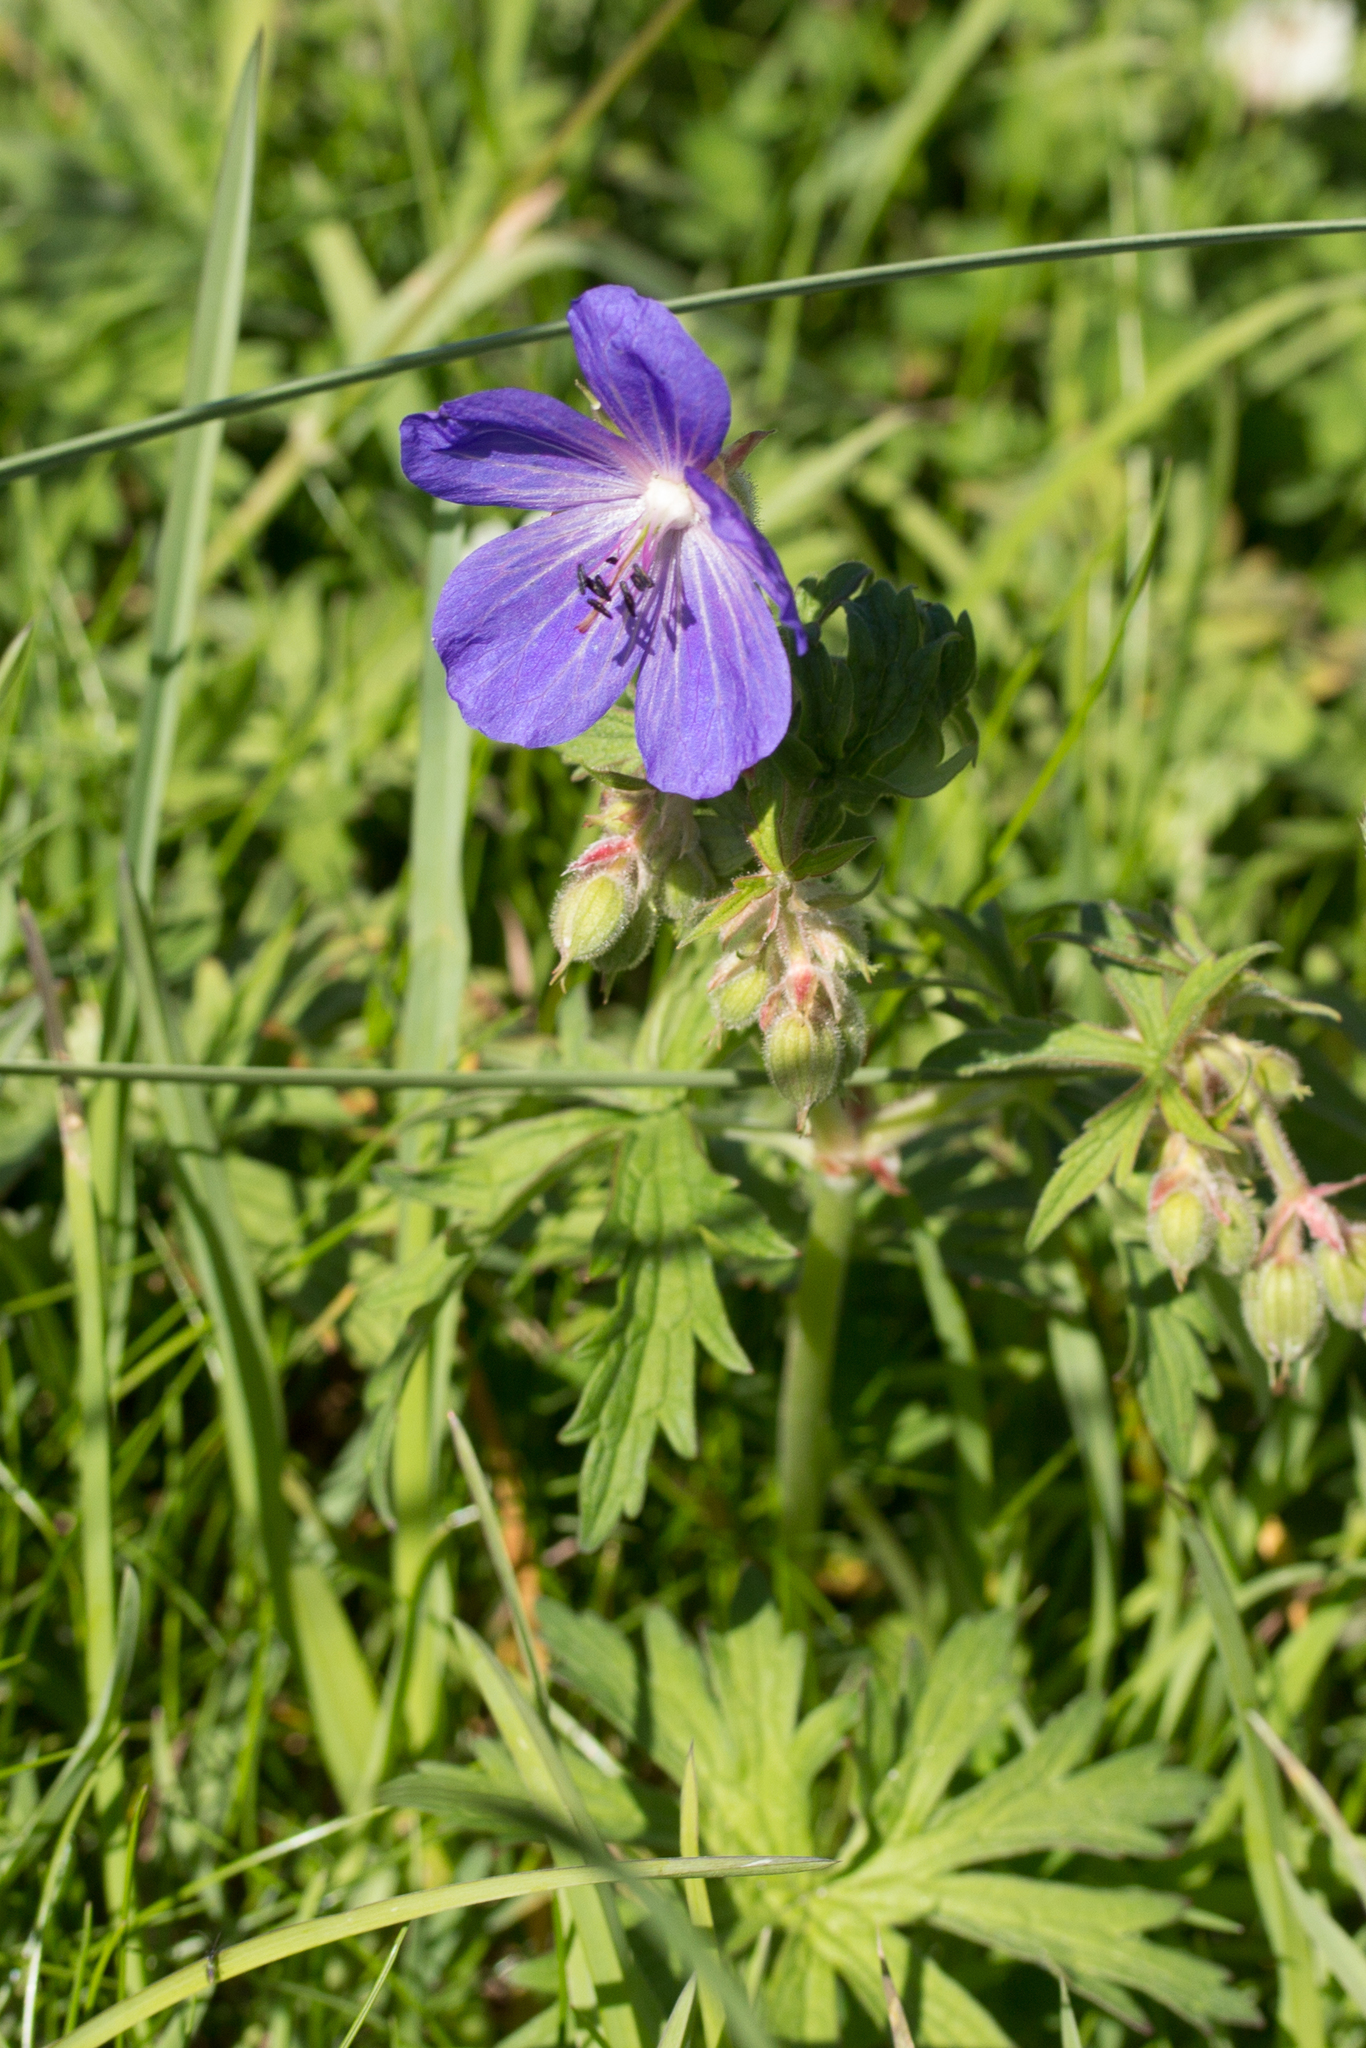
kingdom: Plantae
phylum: Tracheophyta
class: Magnoliopsida
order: Geraniales
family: Geraniaceae
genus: Geranium
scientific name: Geranium pratense
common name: Meadow crane's-bill
